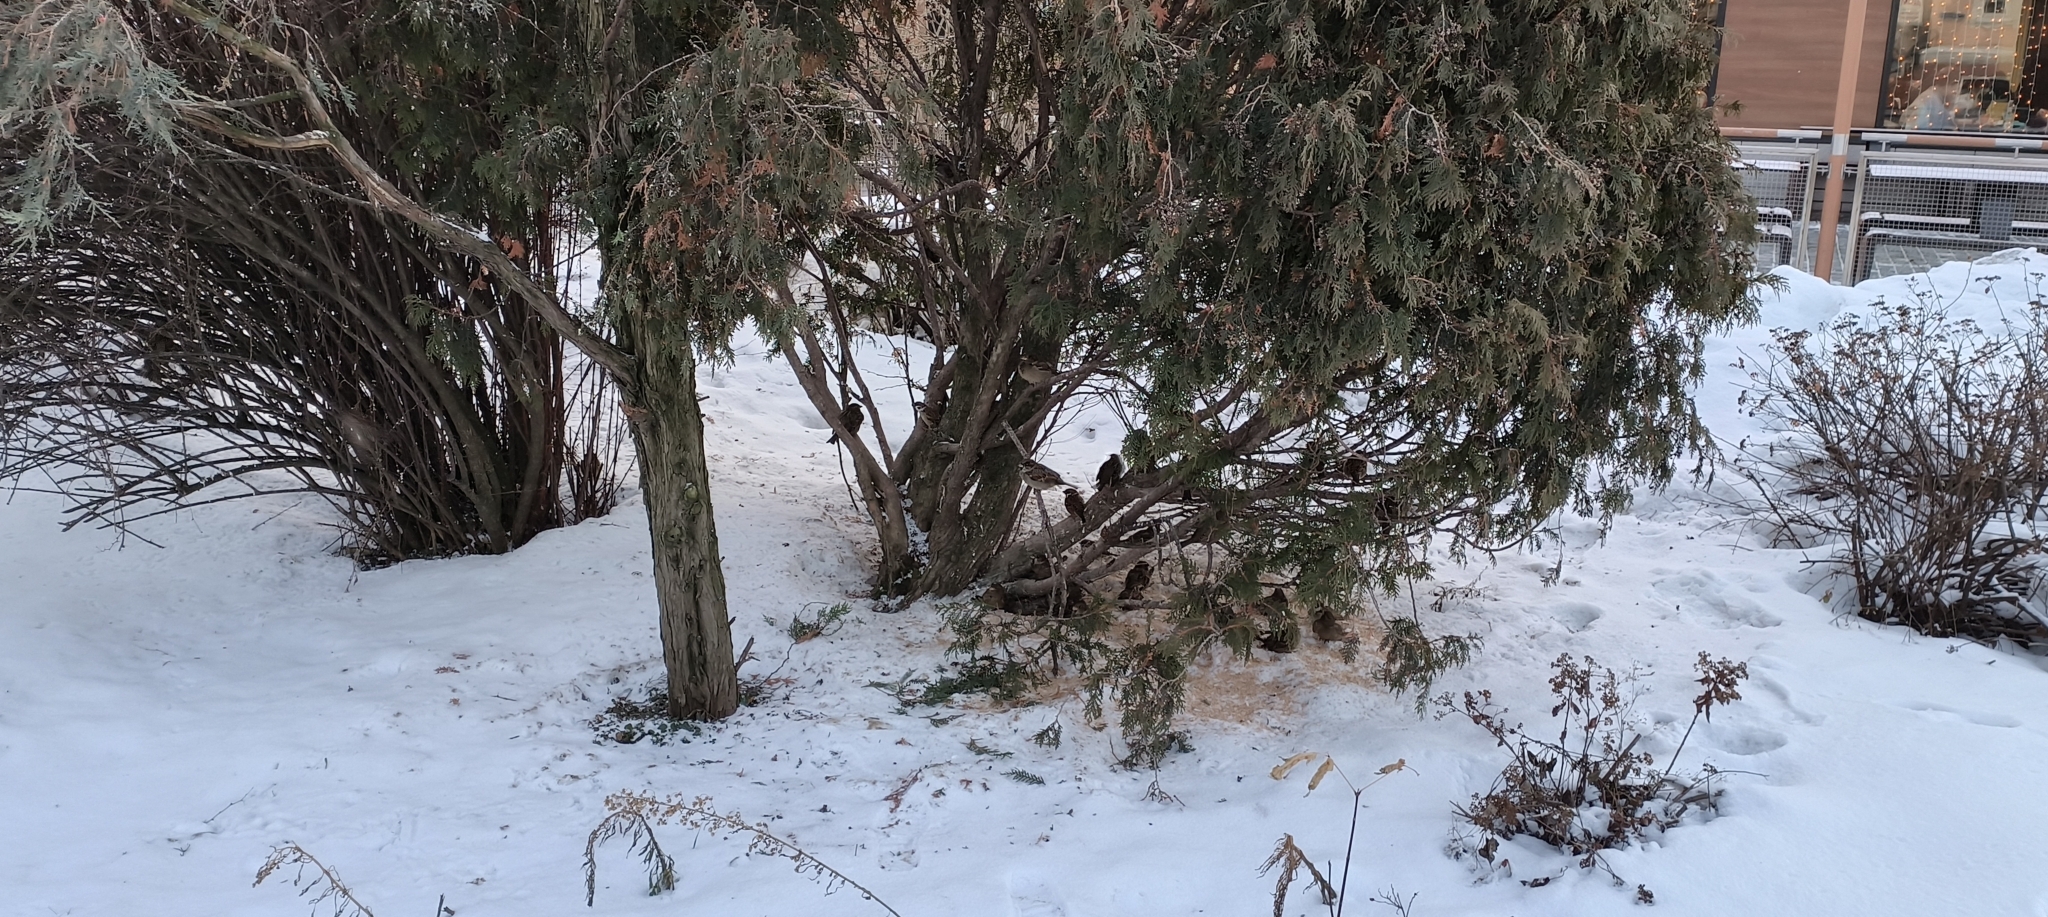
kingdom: Animalia
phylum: Chordata
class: Aves
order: Passeriformes
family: Passeridae
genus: Passer
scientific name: Passer domesticus
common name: House sparrow
